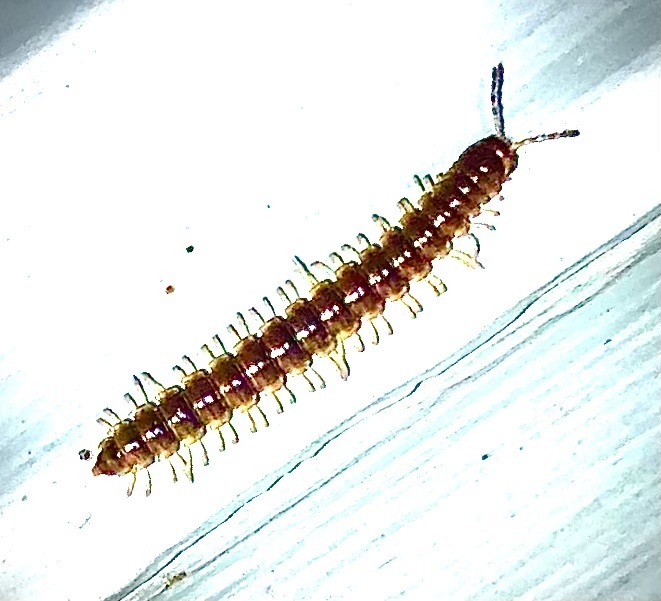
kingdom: Animalia
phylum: Arthropoda
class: Diplopoda
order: Polydesmida
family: Paradoxosomatidae
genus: Oxidus
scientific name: Oxidus gracilis
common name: Greenhouse millipede
